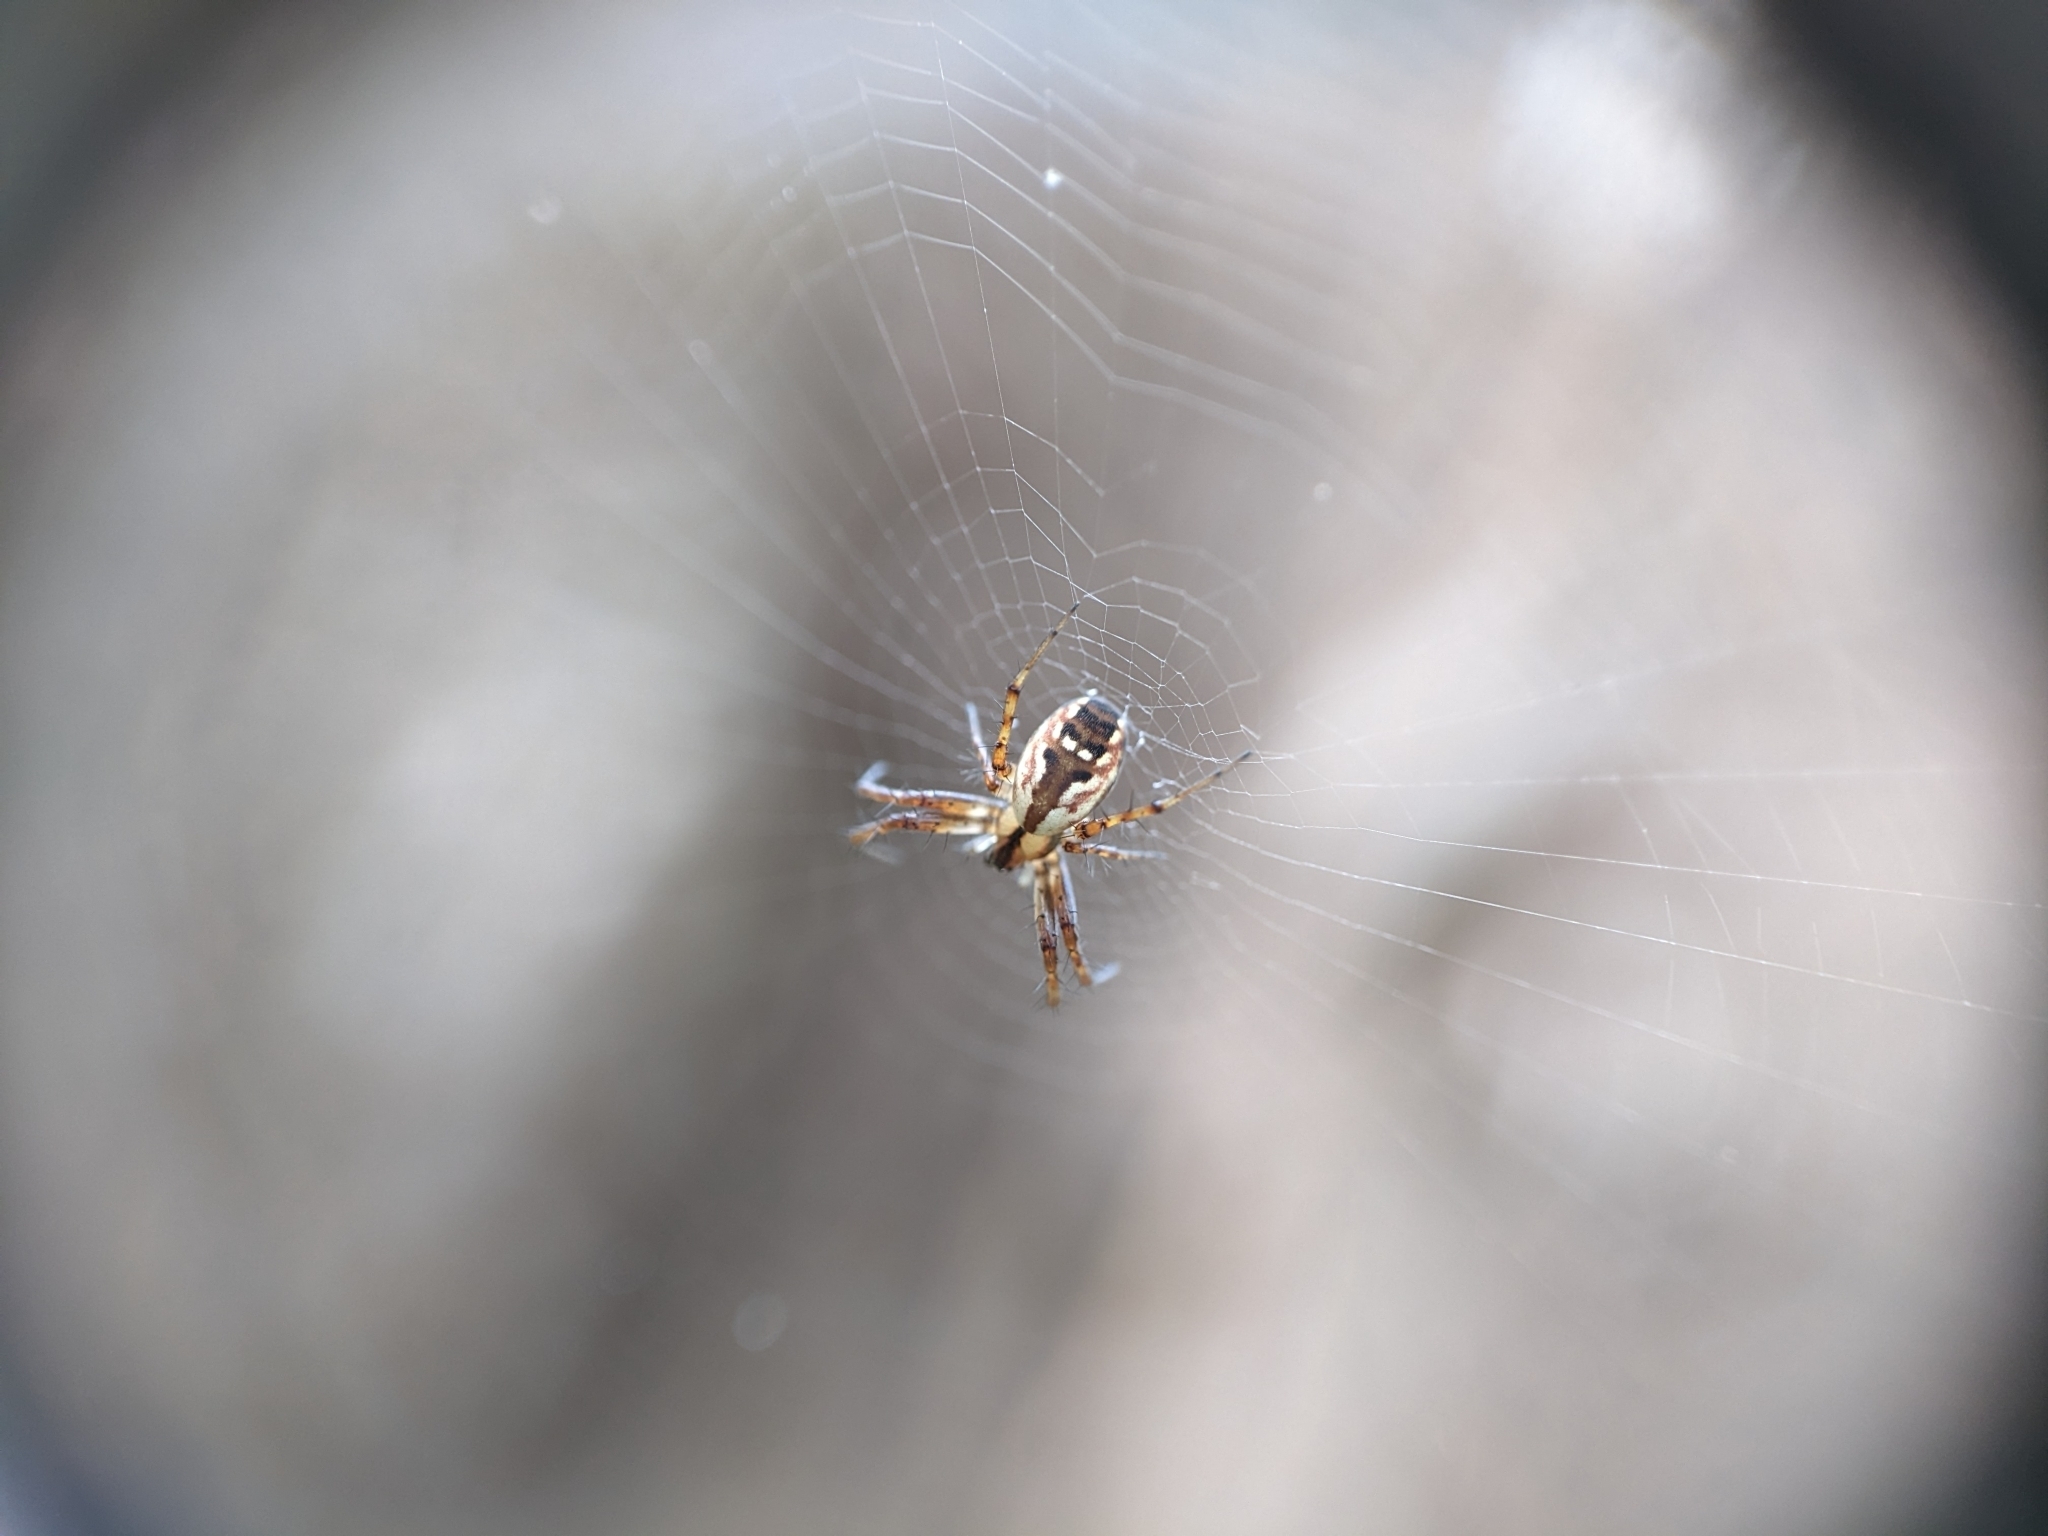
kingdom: Animalia
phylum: Arthropoda
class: Arachnida
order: Araneae
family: Araneidae
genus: Mangora
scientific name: Mangora placida
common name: Tuft-legged orbweaver
